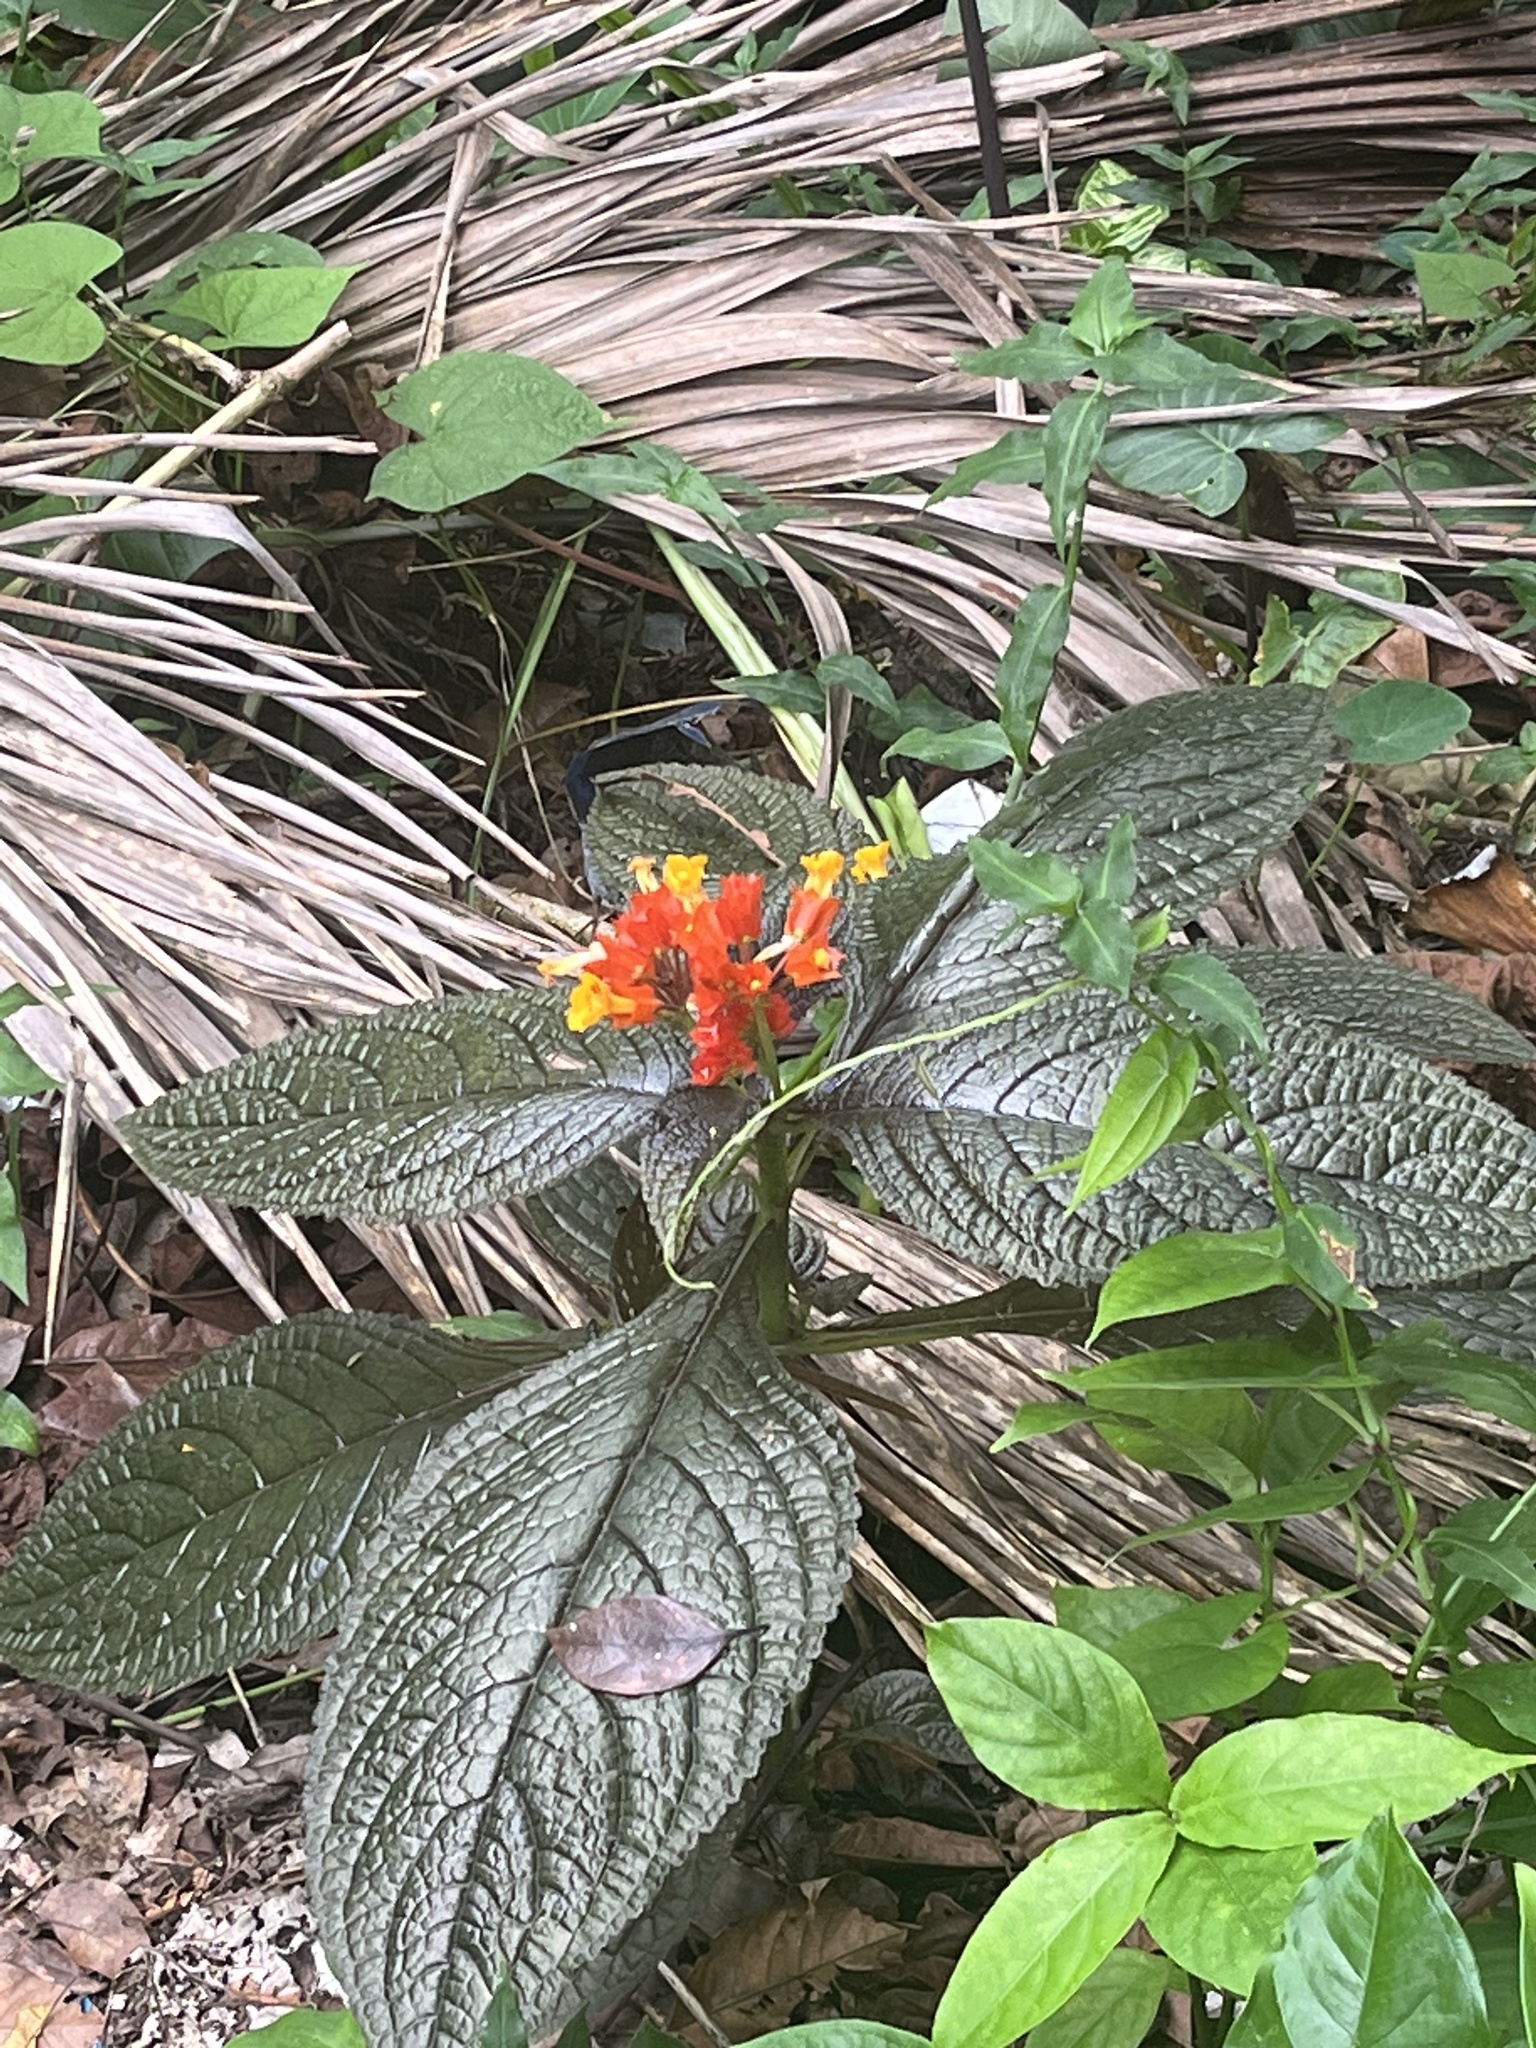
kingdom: Plantae
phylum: Tracheophyta
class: Magnoliopsida
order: Lamiales
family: Gesneriaceae
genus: Chrysothemis
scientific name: Chrysothemis pulchella
